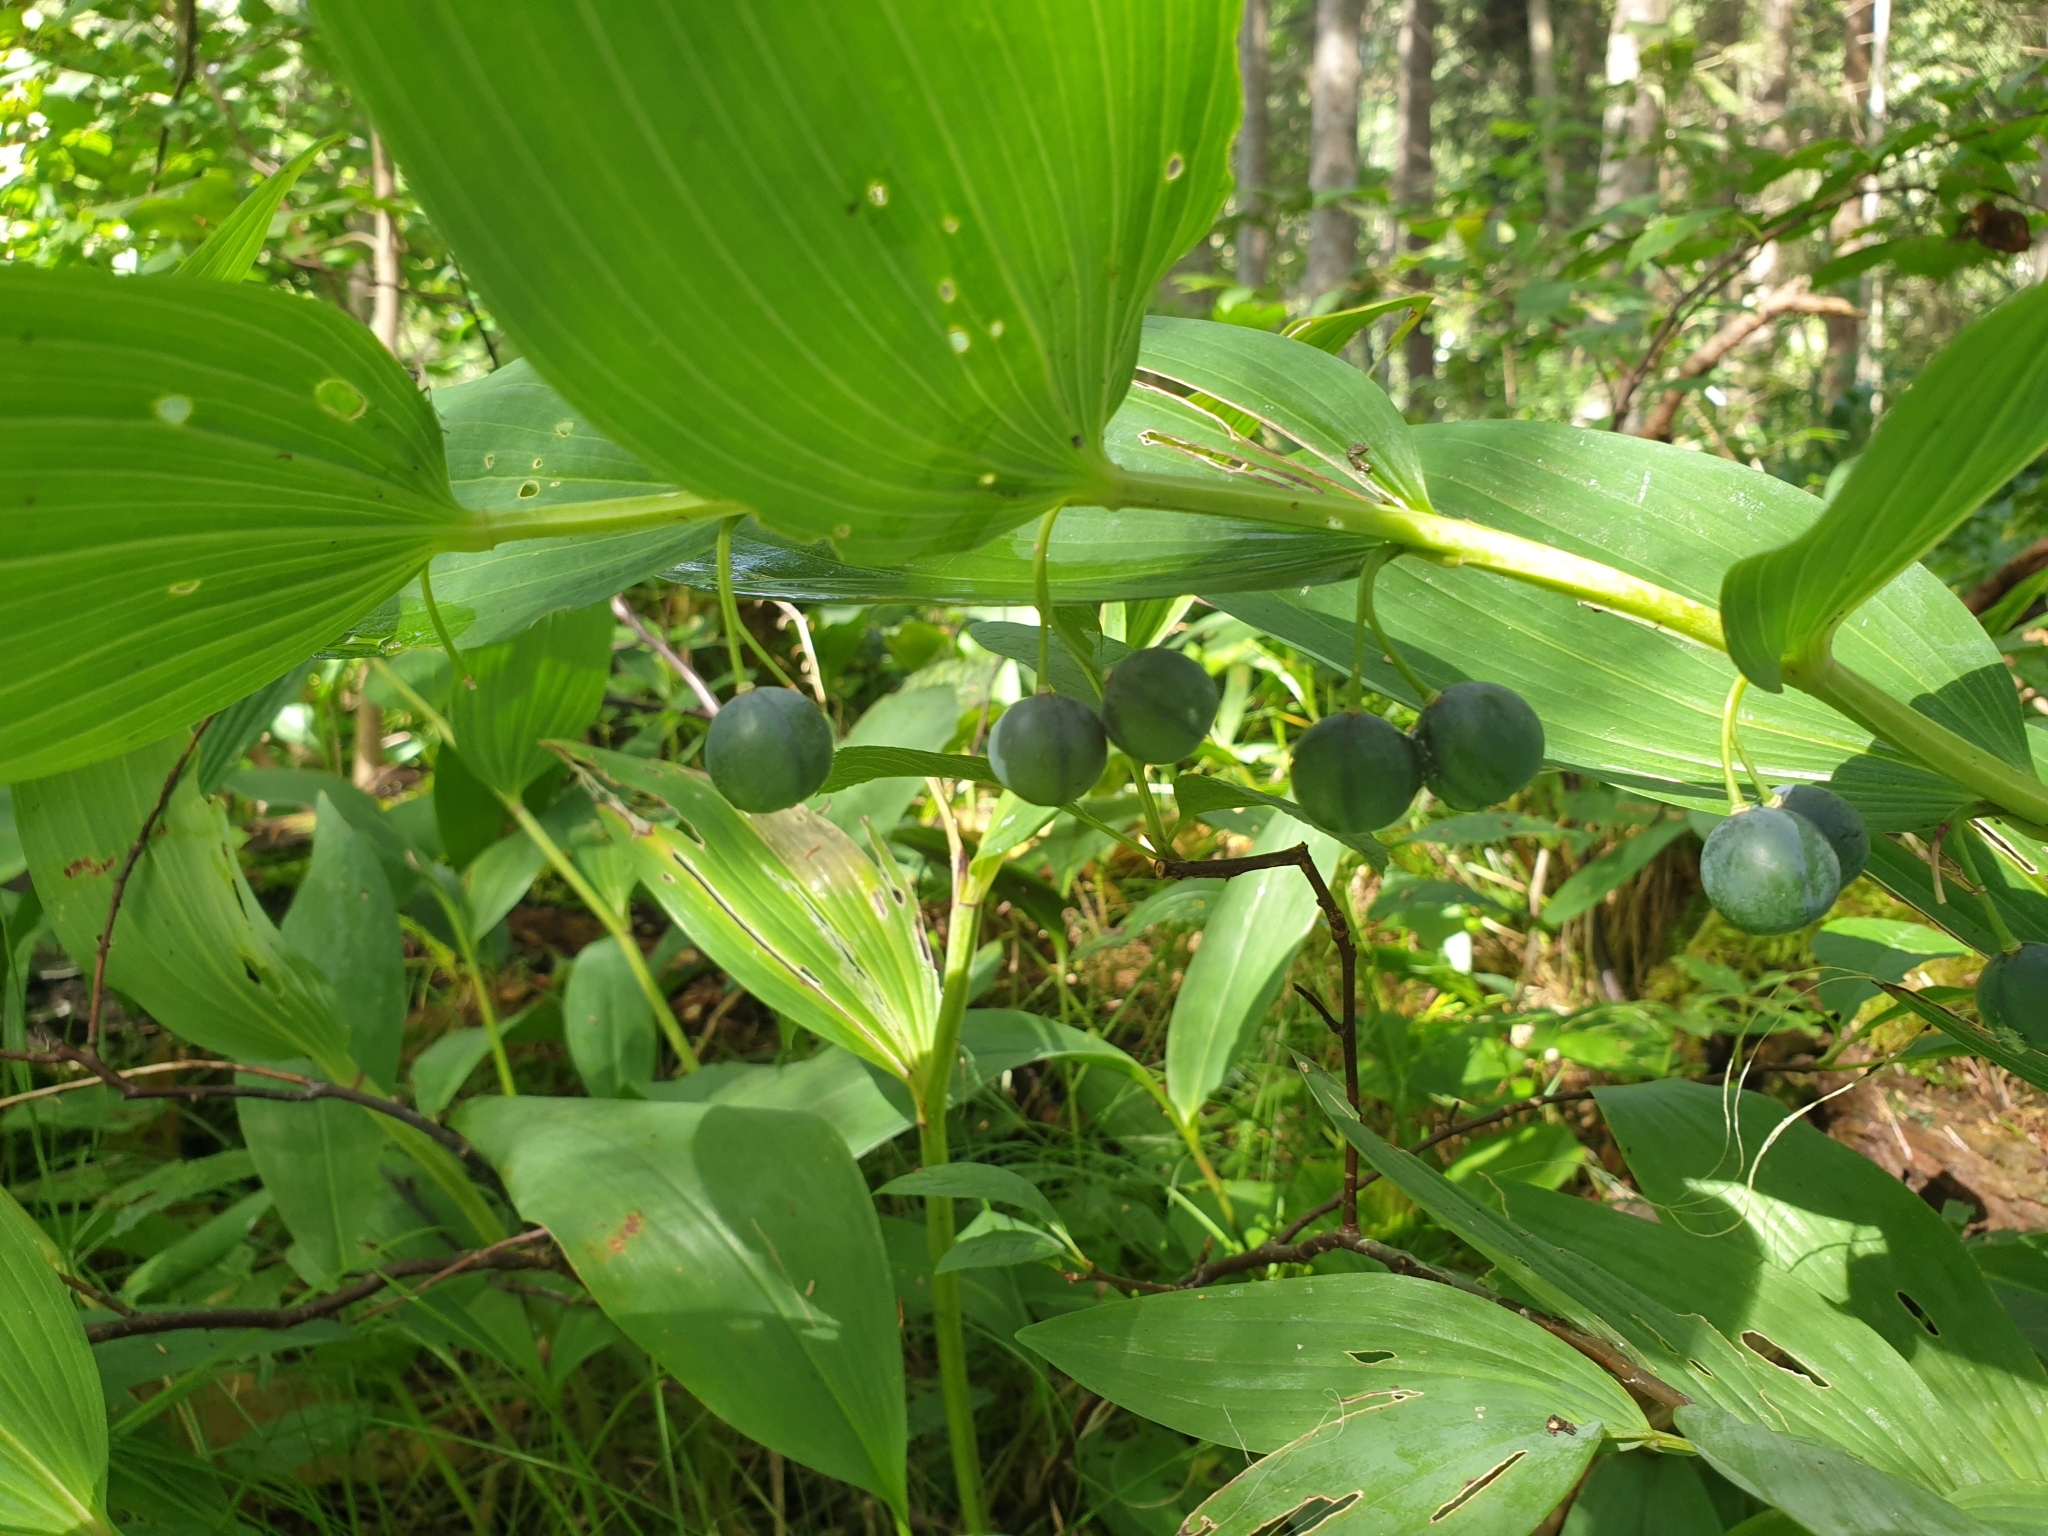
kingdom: Plantae
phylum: Tracheophyta
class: Liliopsida
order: Asparagales
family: Asparagaceae
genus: Polygonatum
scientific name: Polygonatum odoratum
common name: Angular solomon's-seal
